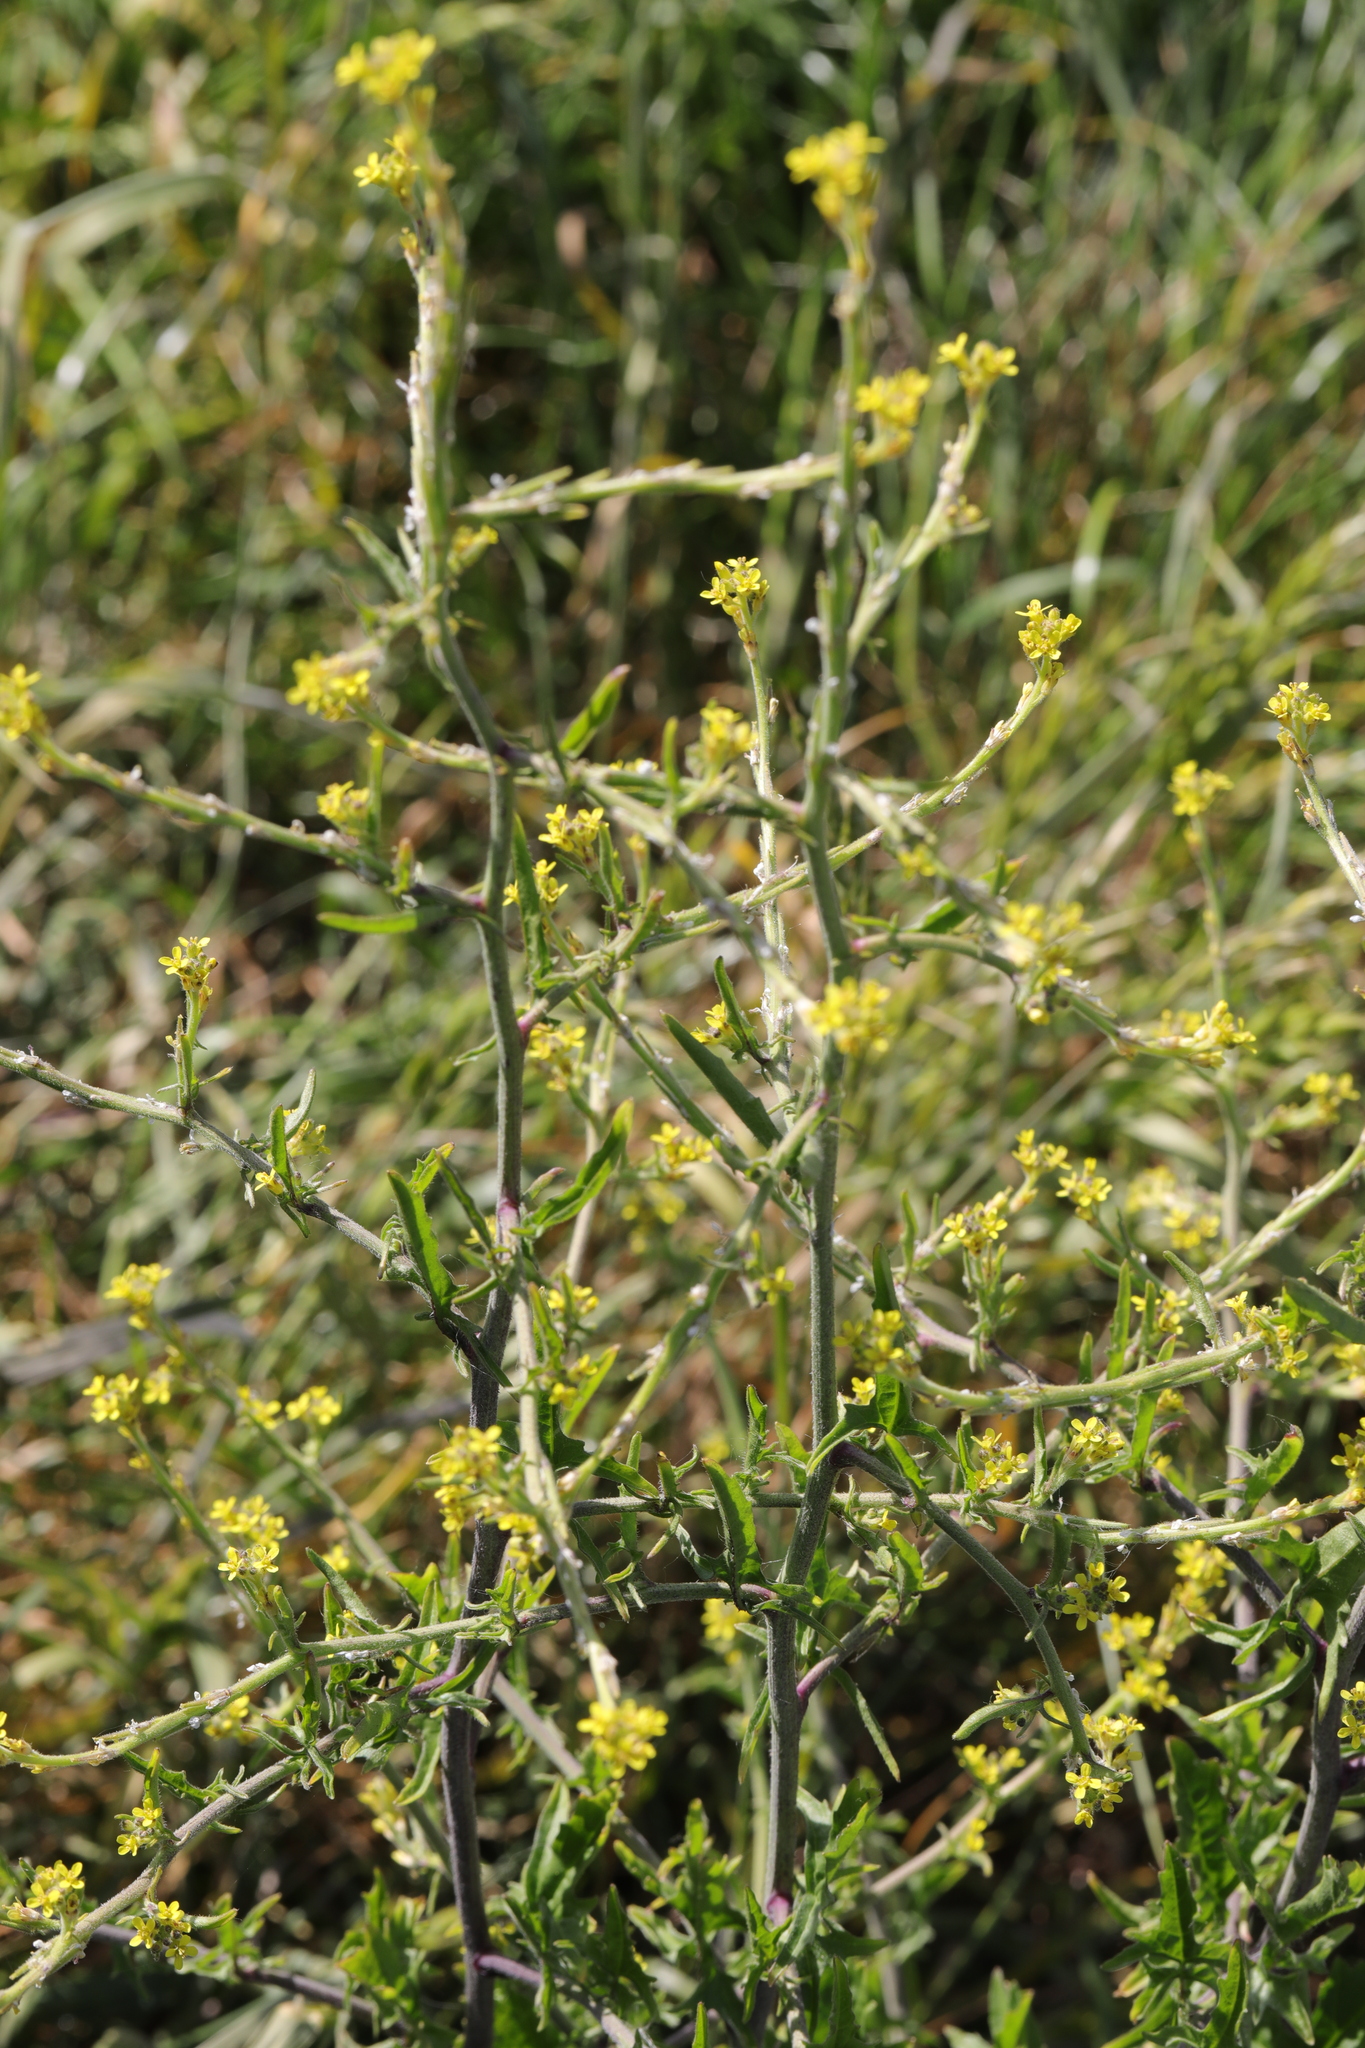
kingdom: Plantae
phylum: Tracheophyta
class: Magnoliopsida
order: Brassicales
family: Brassicaceae
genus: Sisymbrium
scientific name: Sisymbrium officinale
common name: Hedge mustard
